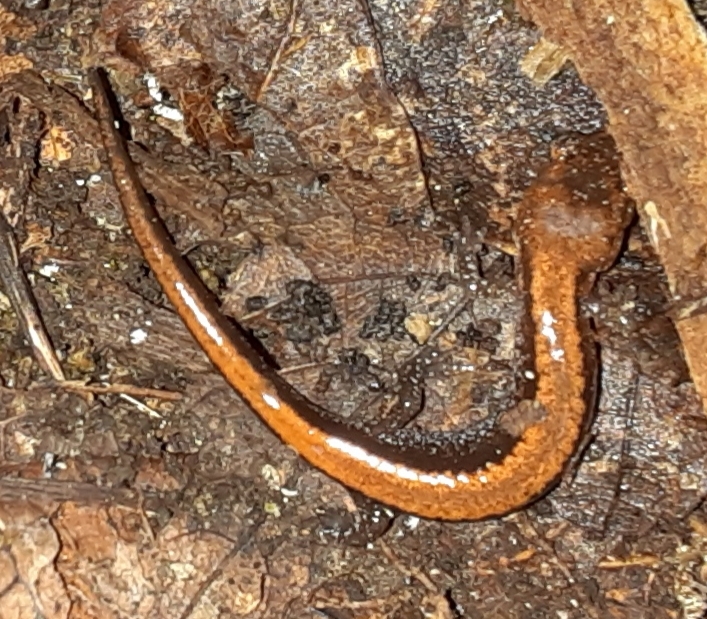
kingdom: Animalia
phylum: Chordata
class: Amphibia
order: Caudata
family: Plethodontidae
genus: Plethodon
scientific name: Plethodon cinereus
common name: Redback salamander
